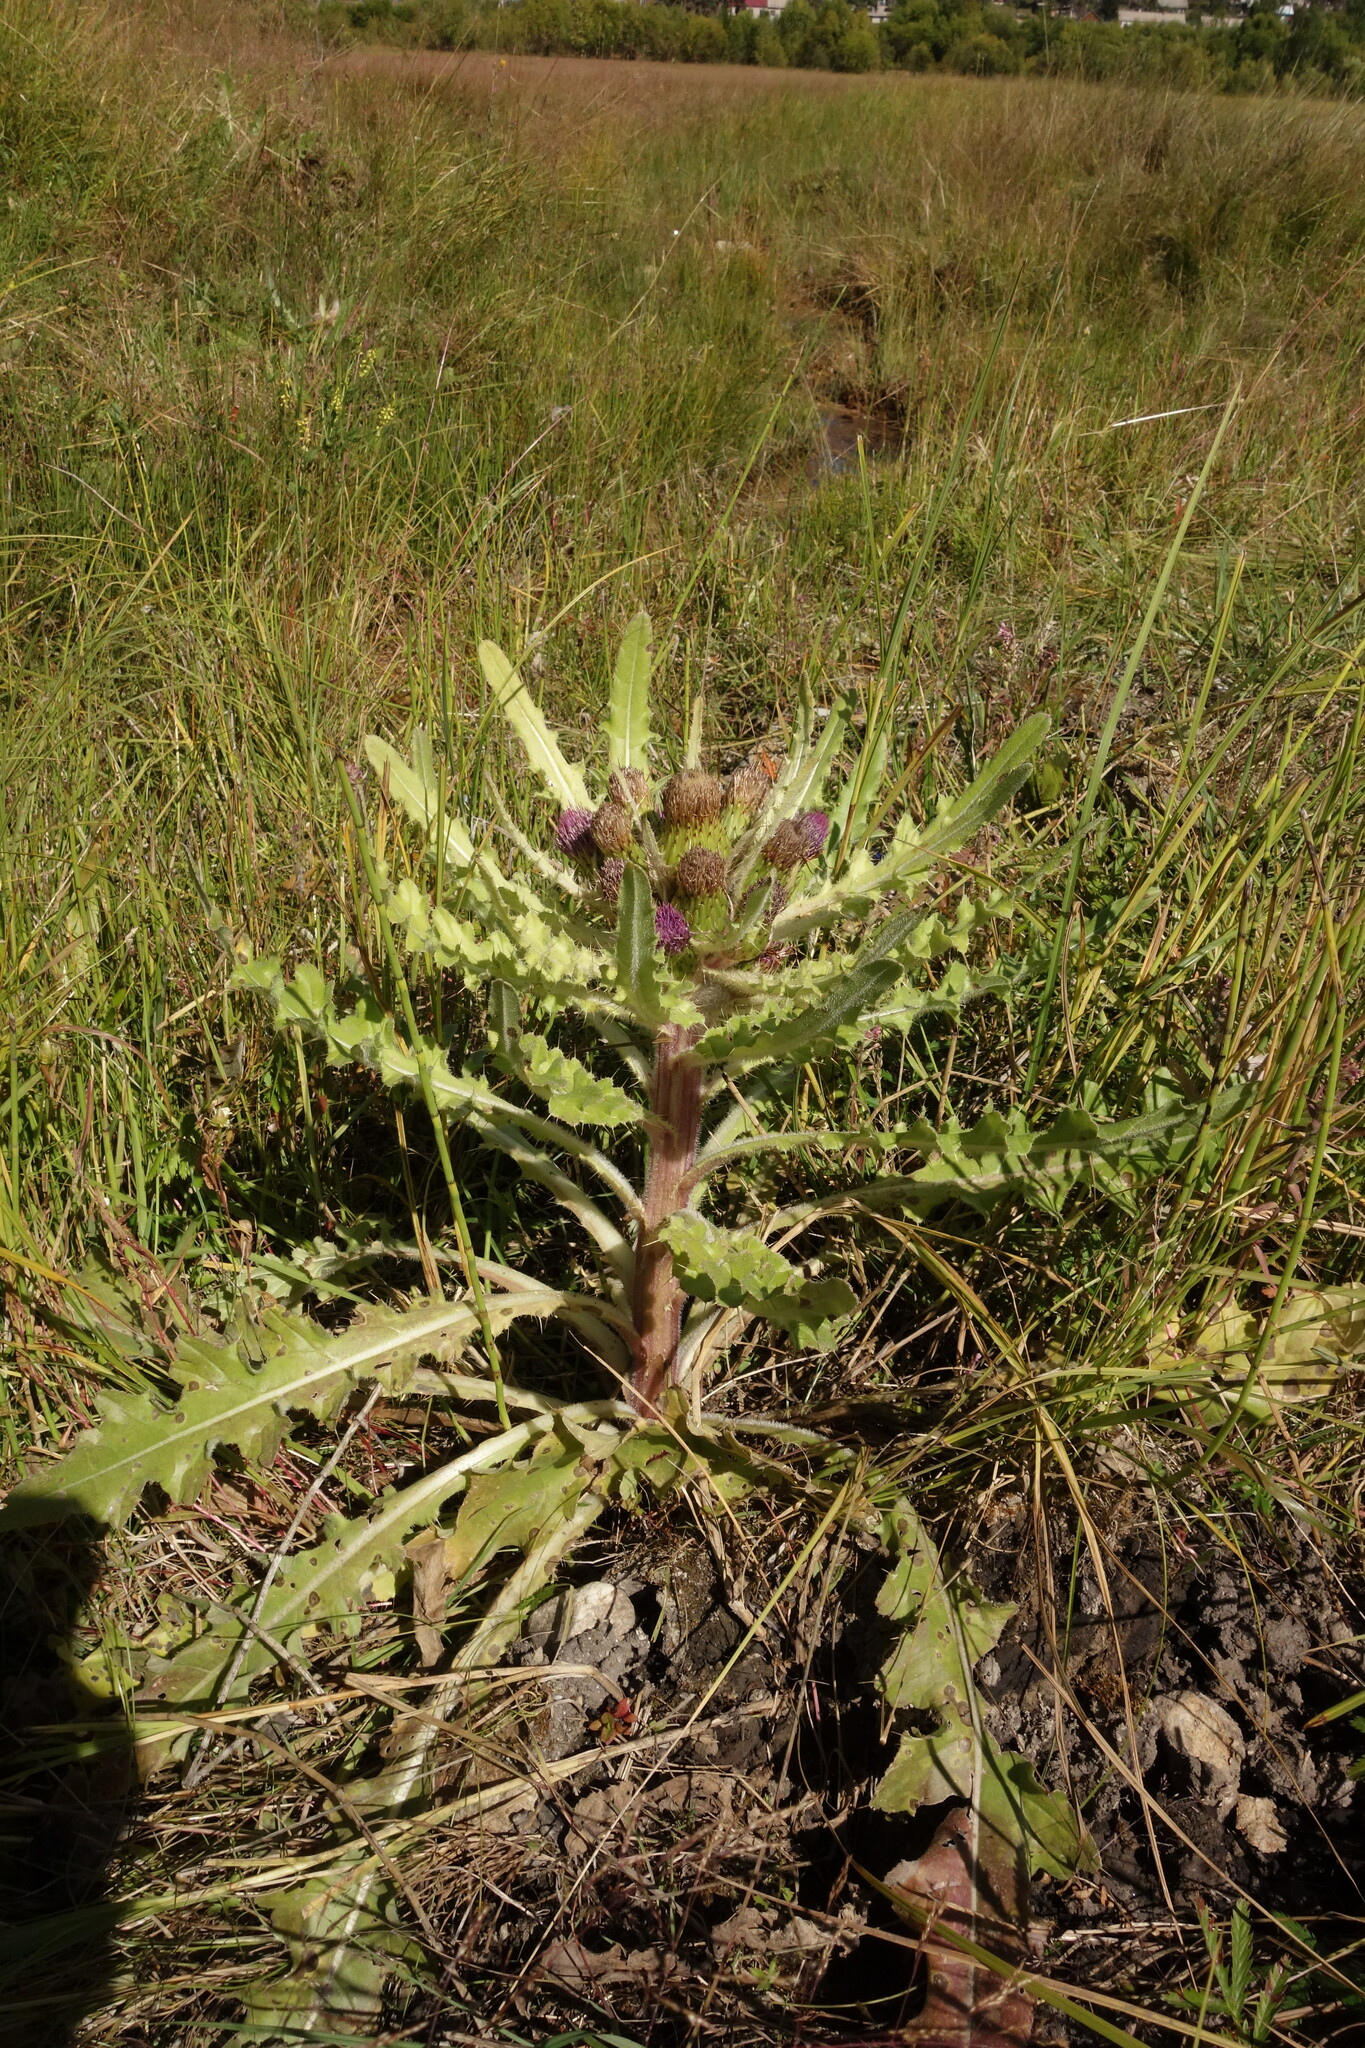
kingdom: Plantae
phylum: Tracheophyta
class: Magnoliopsida
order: Asterales
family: Asteraceae
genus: Cirsium
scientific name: Cirsium esculentum
